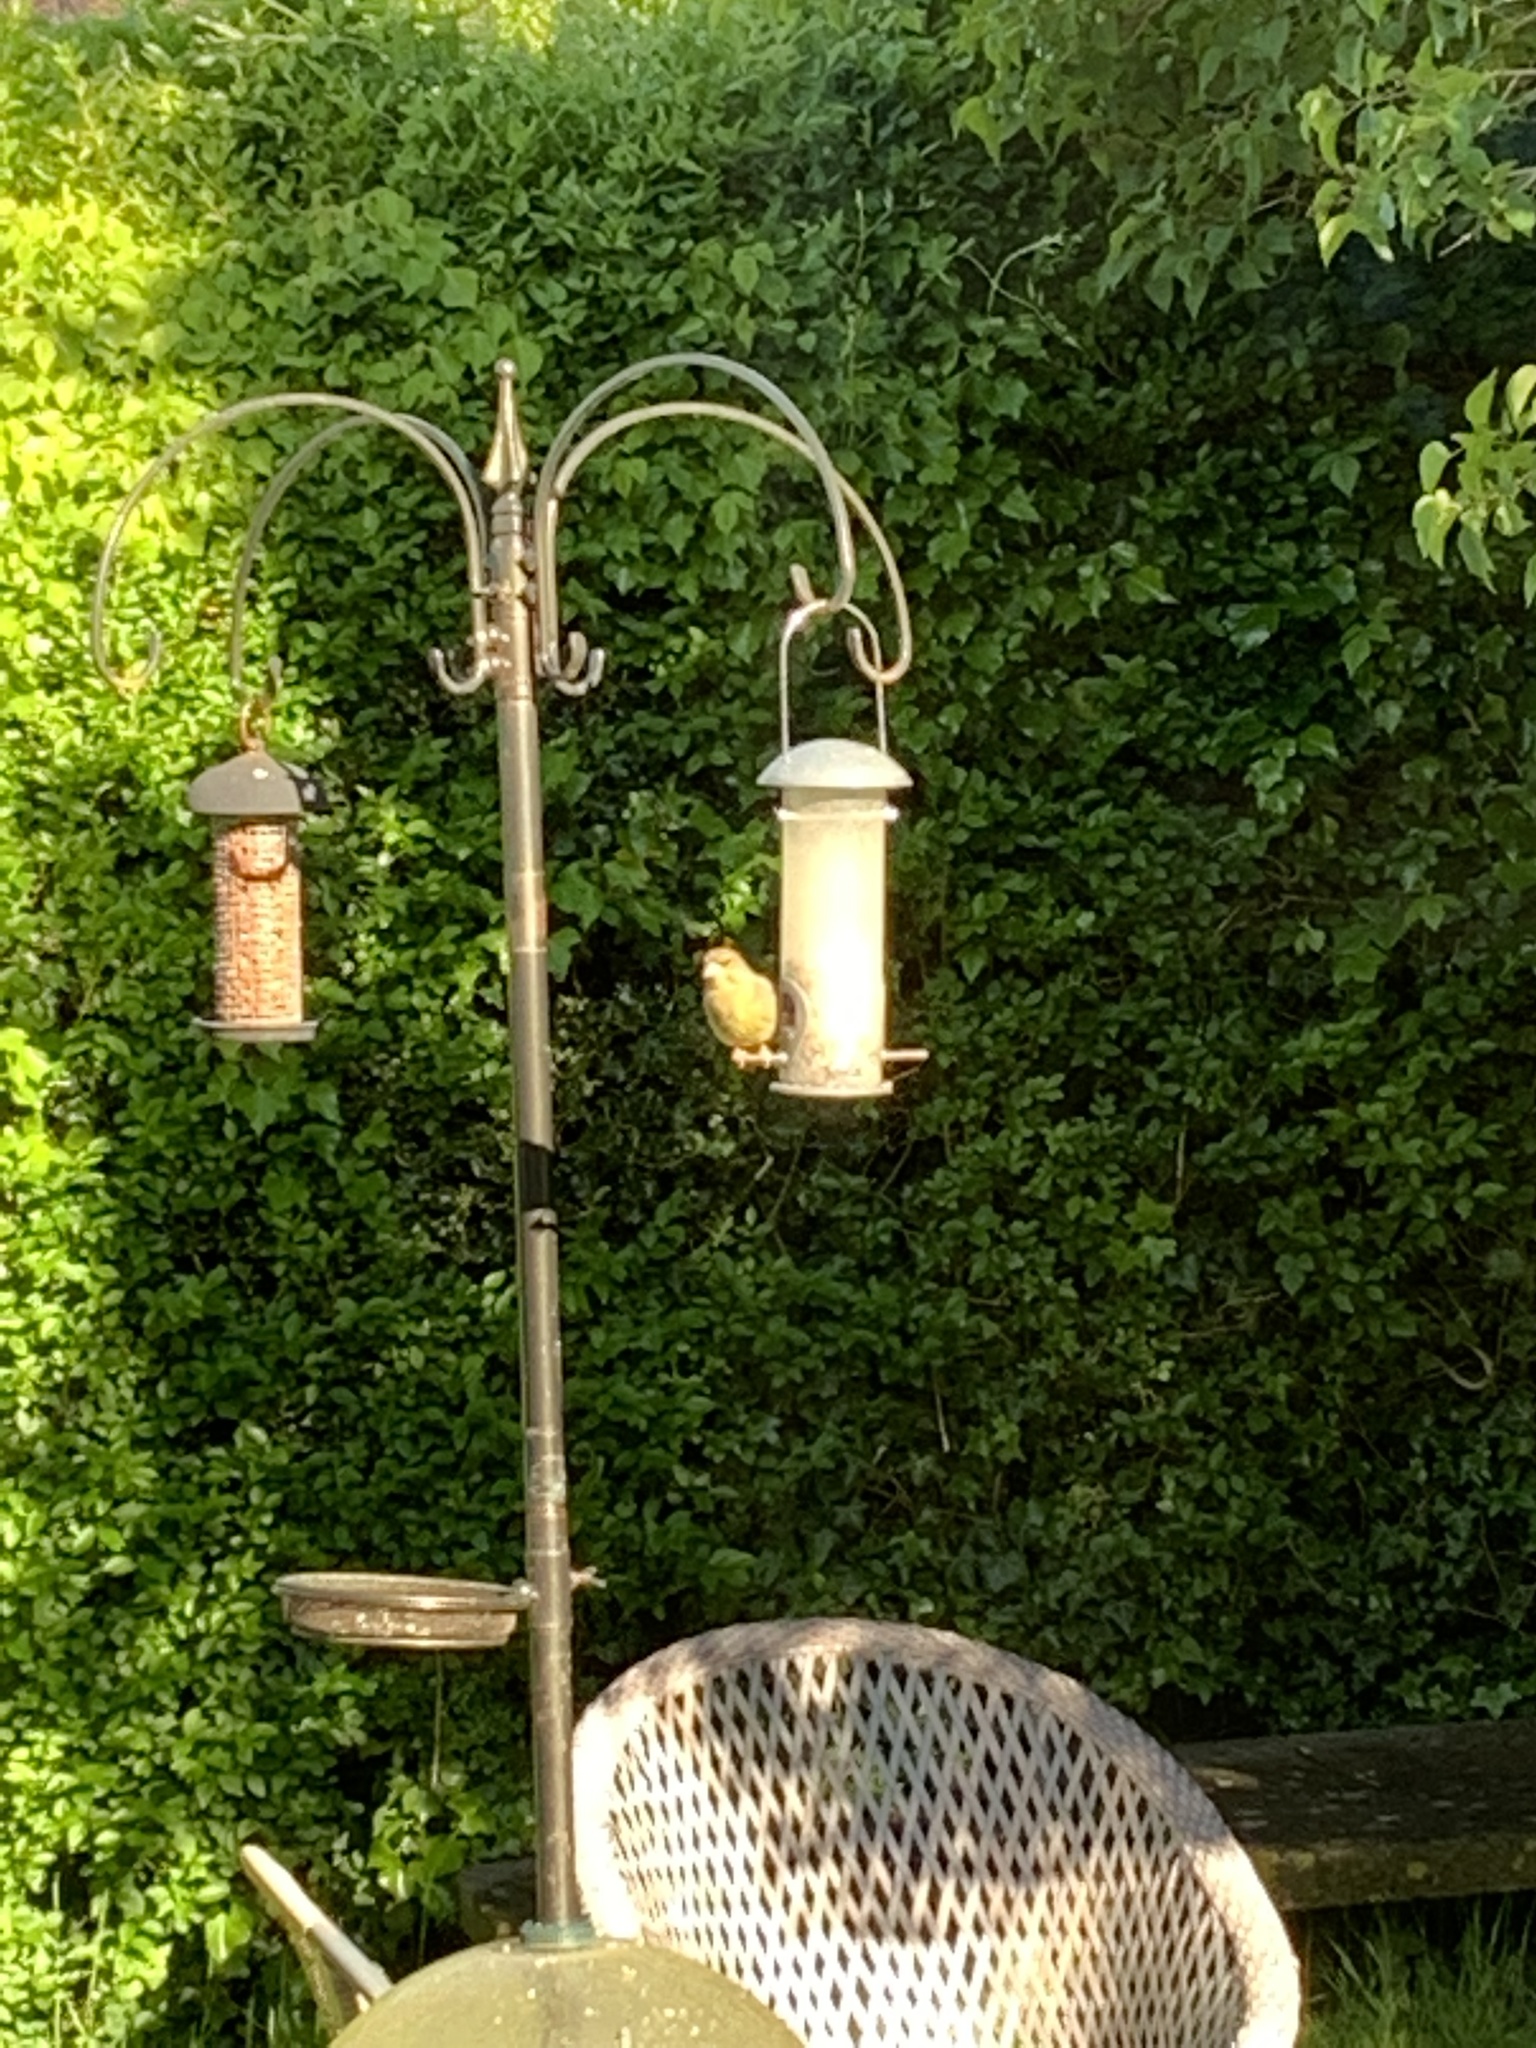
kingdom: Plantae
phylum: Tracheophyta
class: Liliopsida
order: Poales
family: Poaceae
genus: Chloris
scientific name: Chloris chloris
